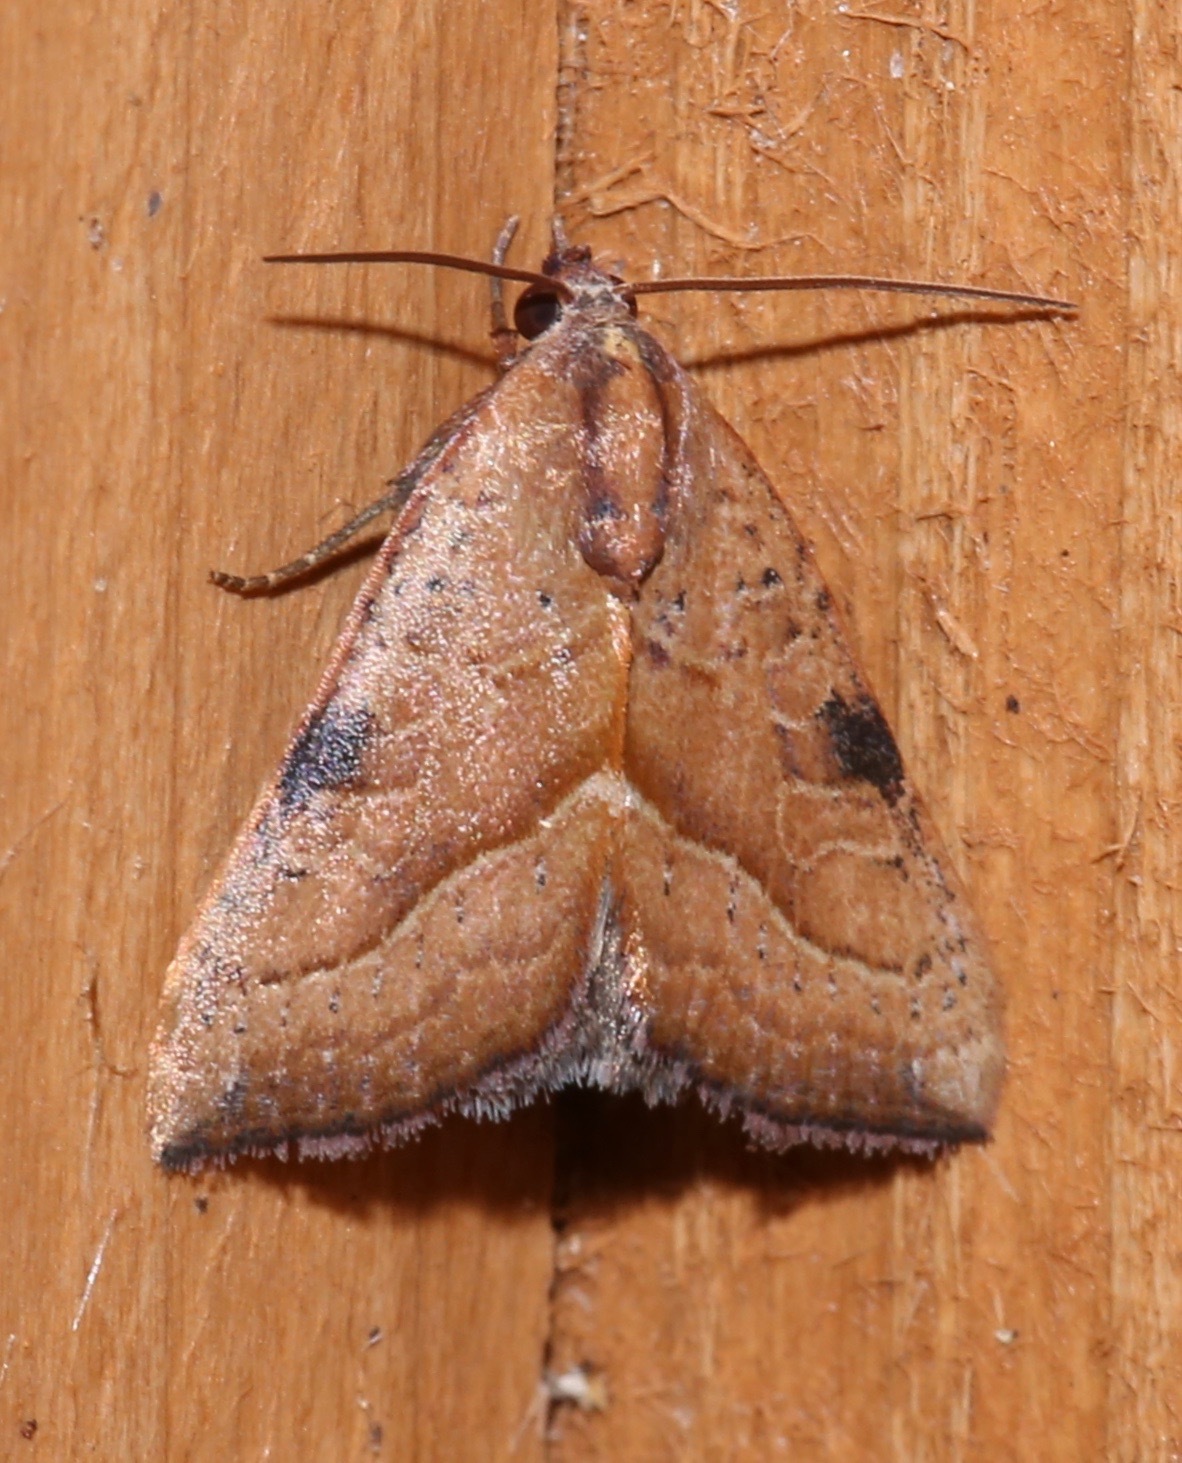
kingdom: Animalia
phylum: Arthropoda
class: Insecta
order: Lepidoptera
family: Noctuidae
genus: Galgula
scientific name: Galgula partita
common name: Wedgeling
